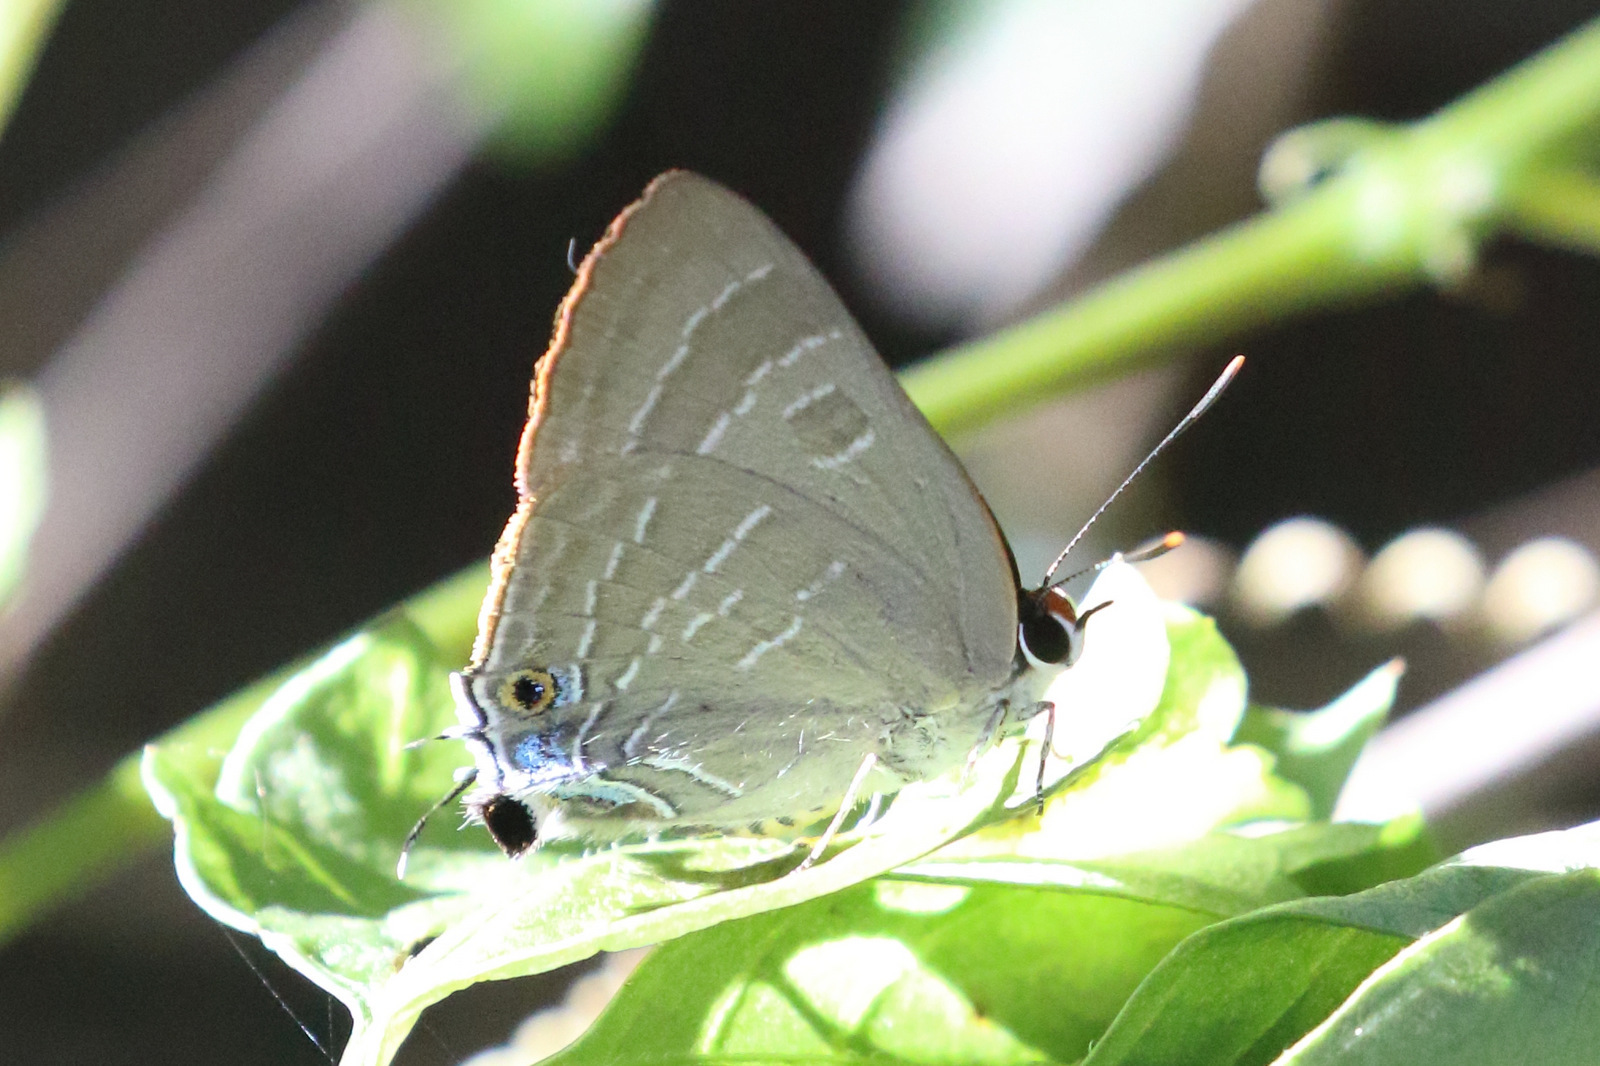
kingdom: Animalia
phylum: Arthropoda
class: Insecta
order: Lepidoptera
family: Lycaenidae
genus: Deudorix
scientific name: Deudorix diovis
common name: Bright cornelian
